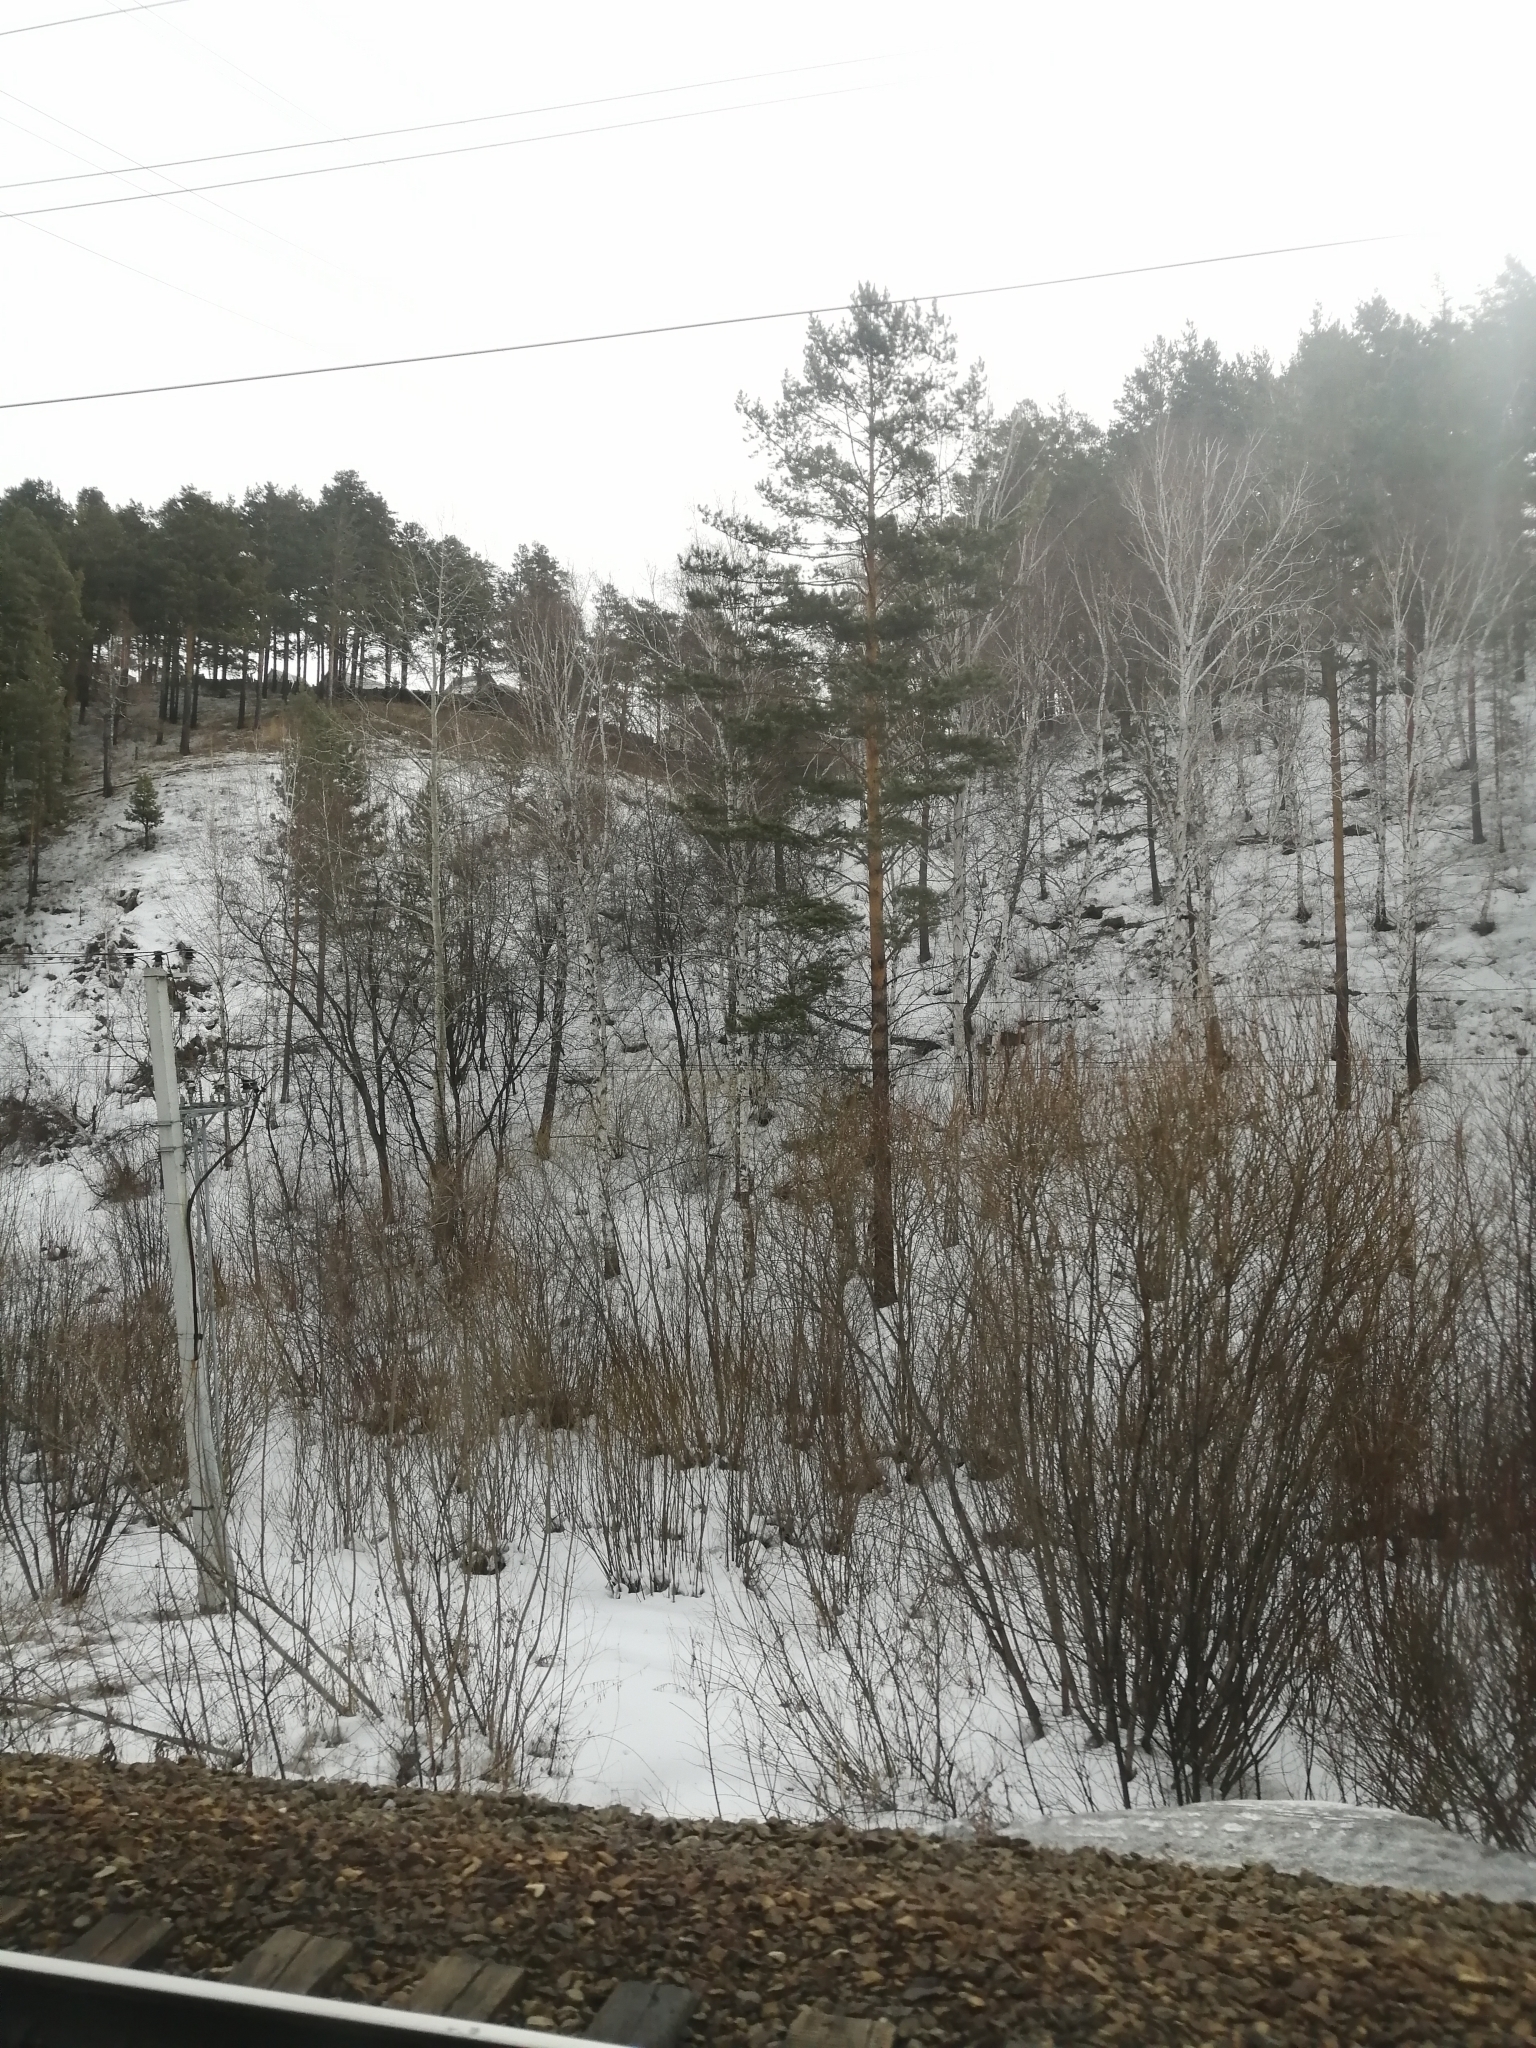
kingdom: Plantae
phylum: Tracheophyta
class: Pinopsida
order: Pinales
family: Pinaceae
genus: Pinus
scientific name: Pinus sylvestris
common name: Scots pine
